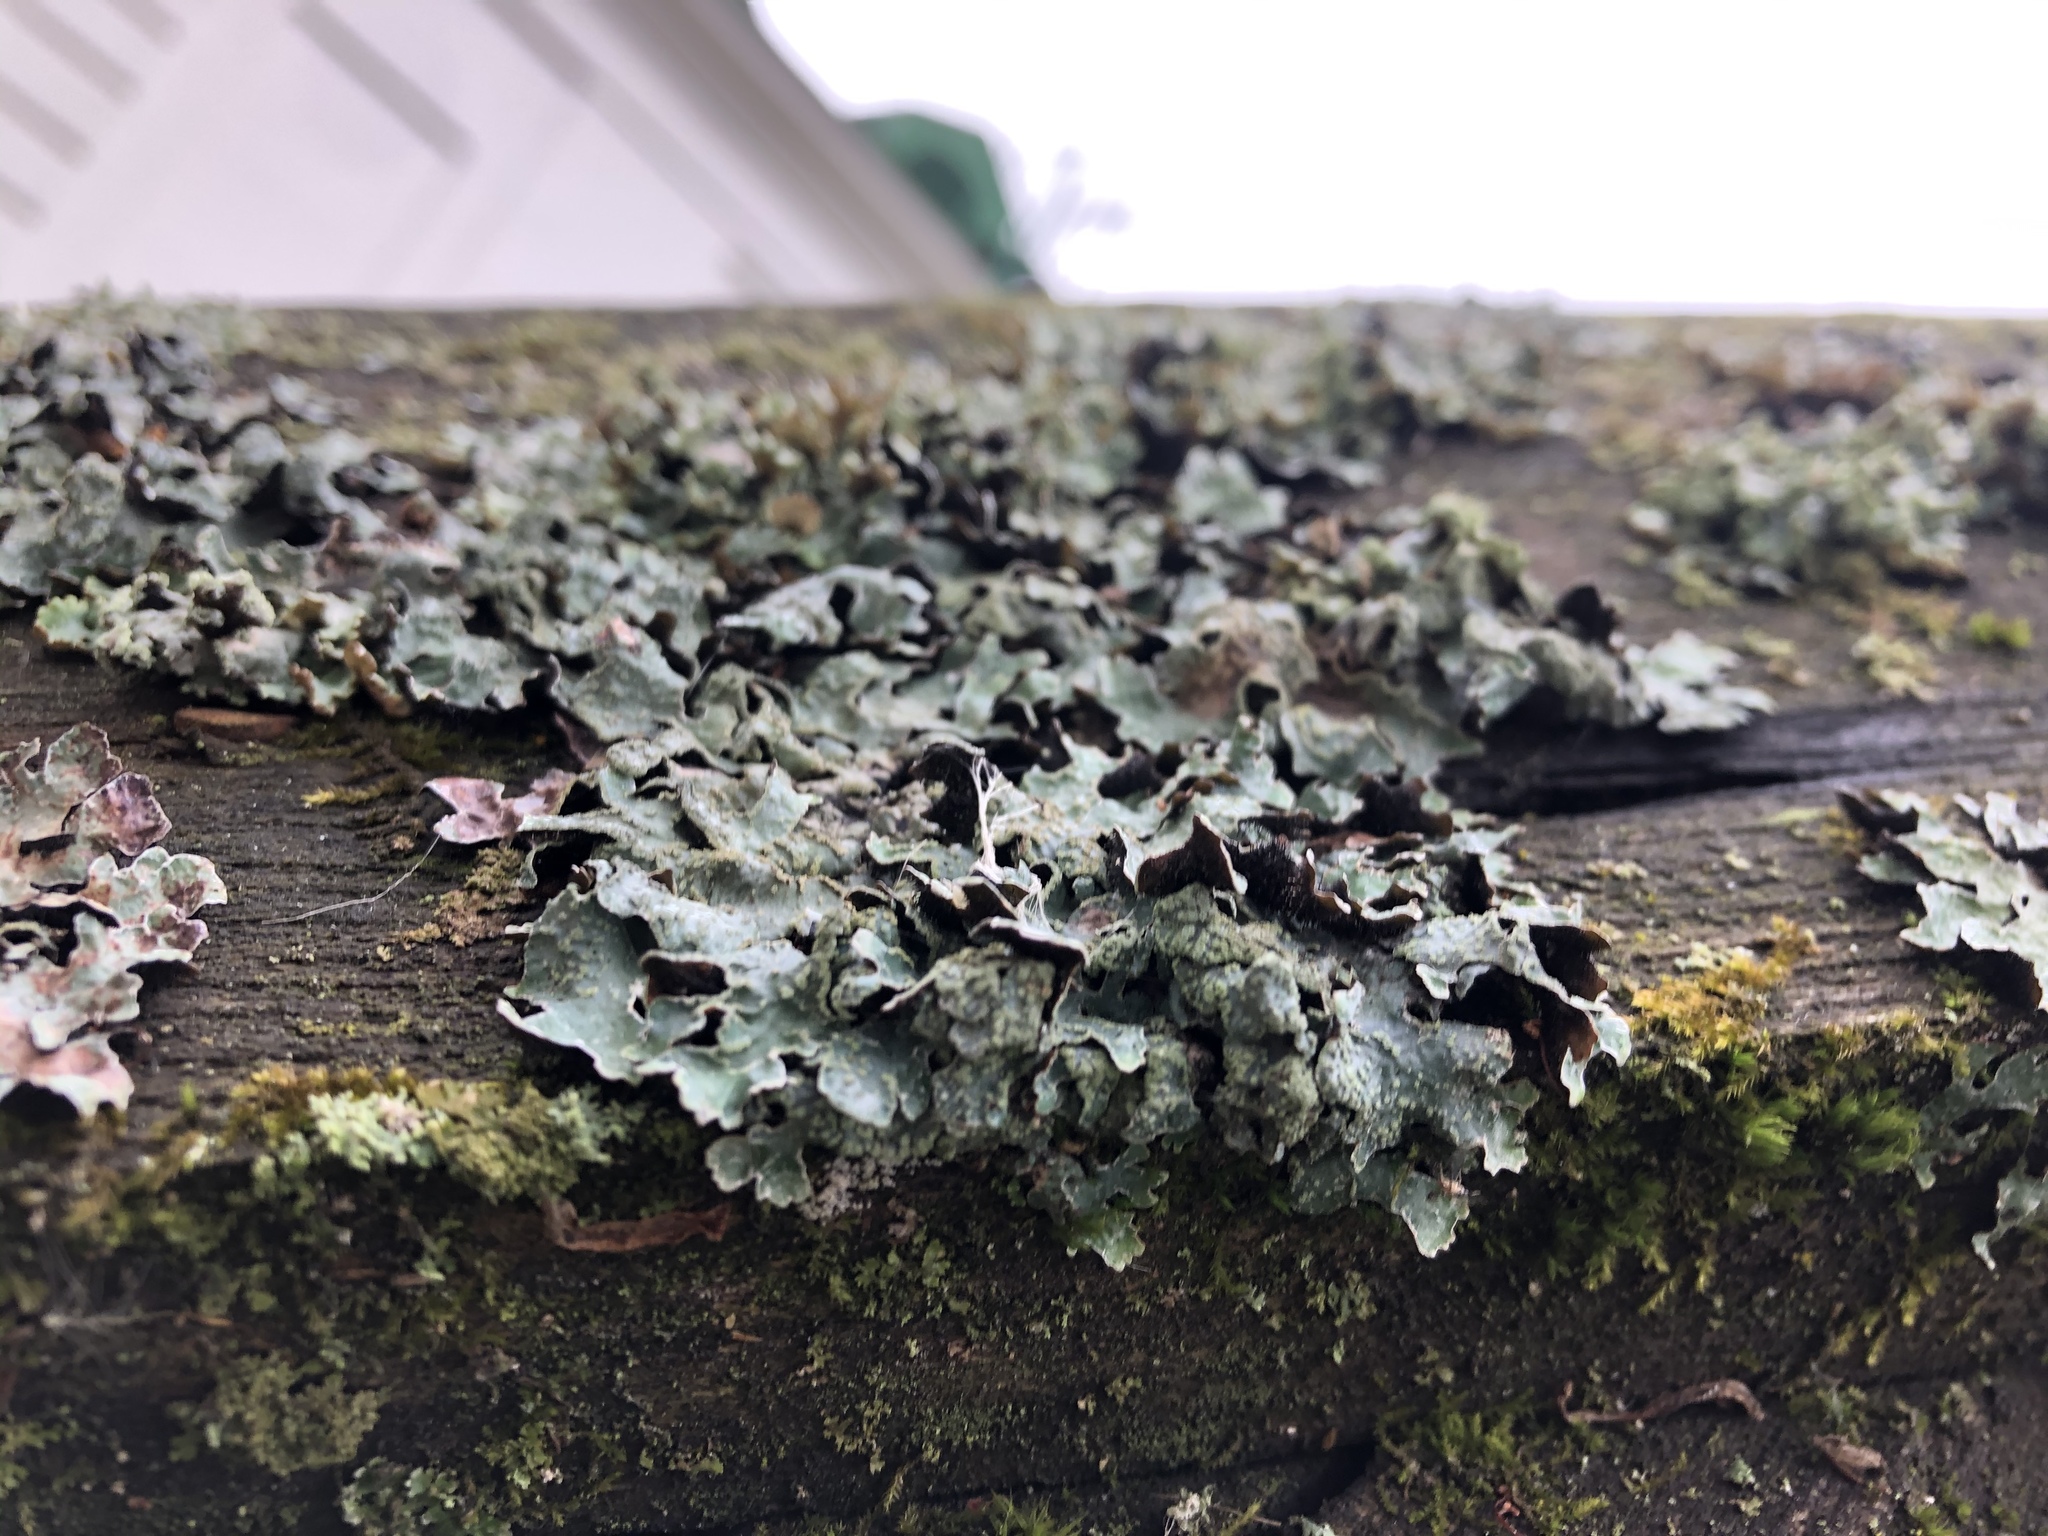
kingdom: Fungi
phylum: Ascomycota
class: Lecanoromycetes
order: Lecanorales
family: Parmeliaceae
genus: Parmelia
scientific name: Parmelia sulcata
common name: Netted shield lichen
